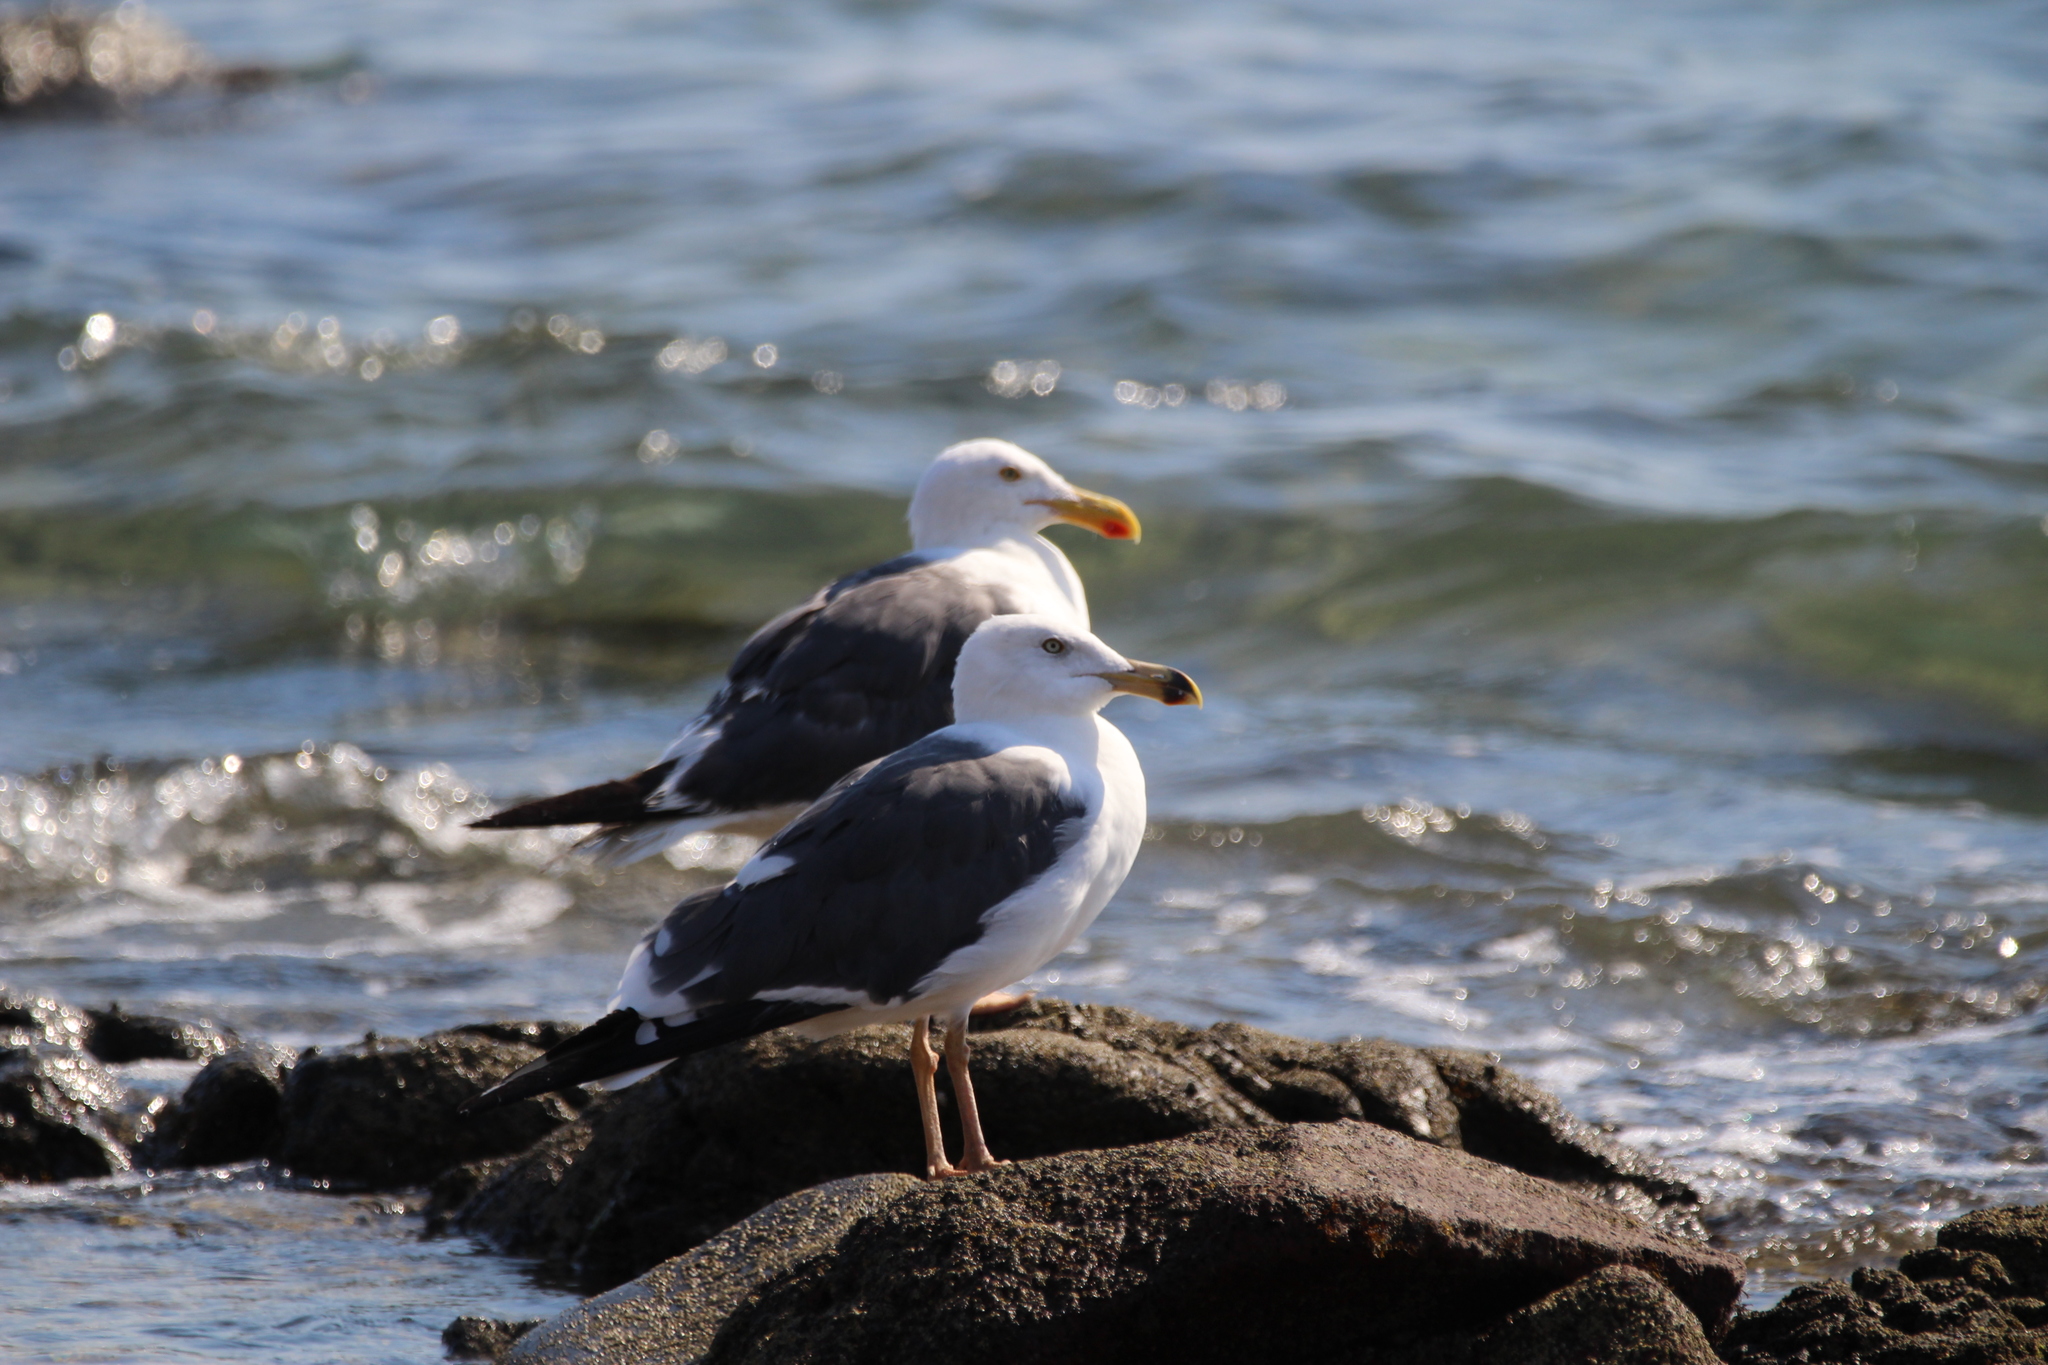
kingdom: Animalia
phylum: Chordata
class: Aves
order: Charadriiformes
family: Laridae
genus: Larus
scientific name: Larus livens
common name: Yellow-footed gull
